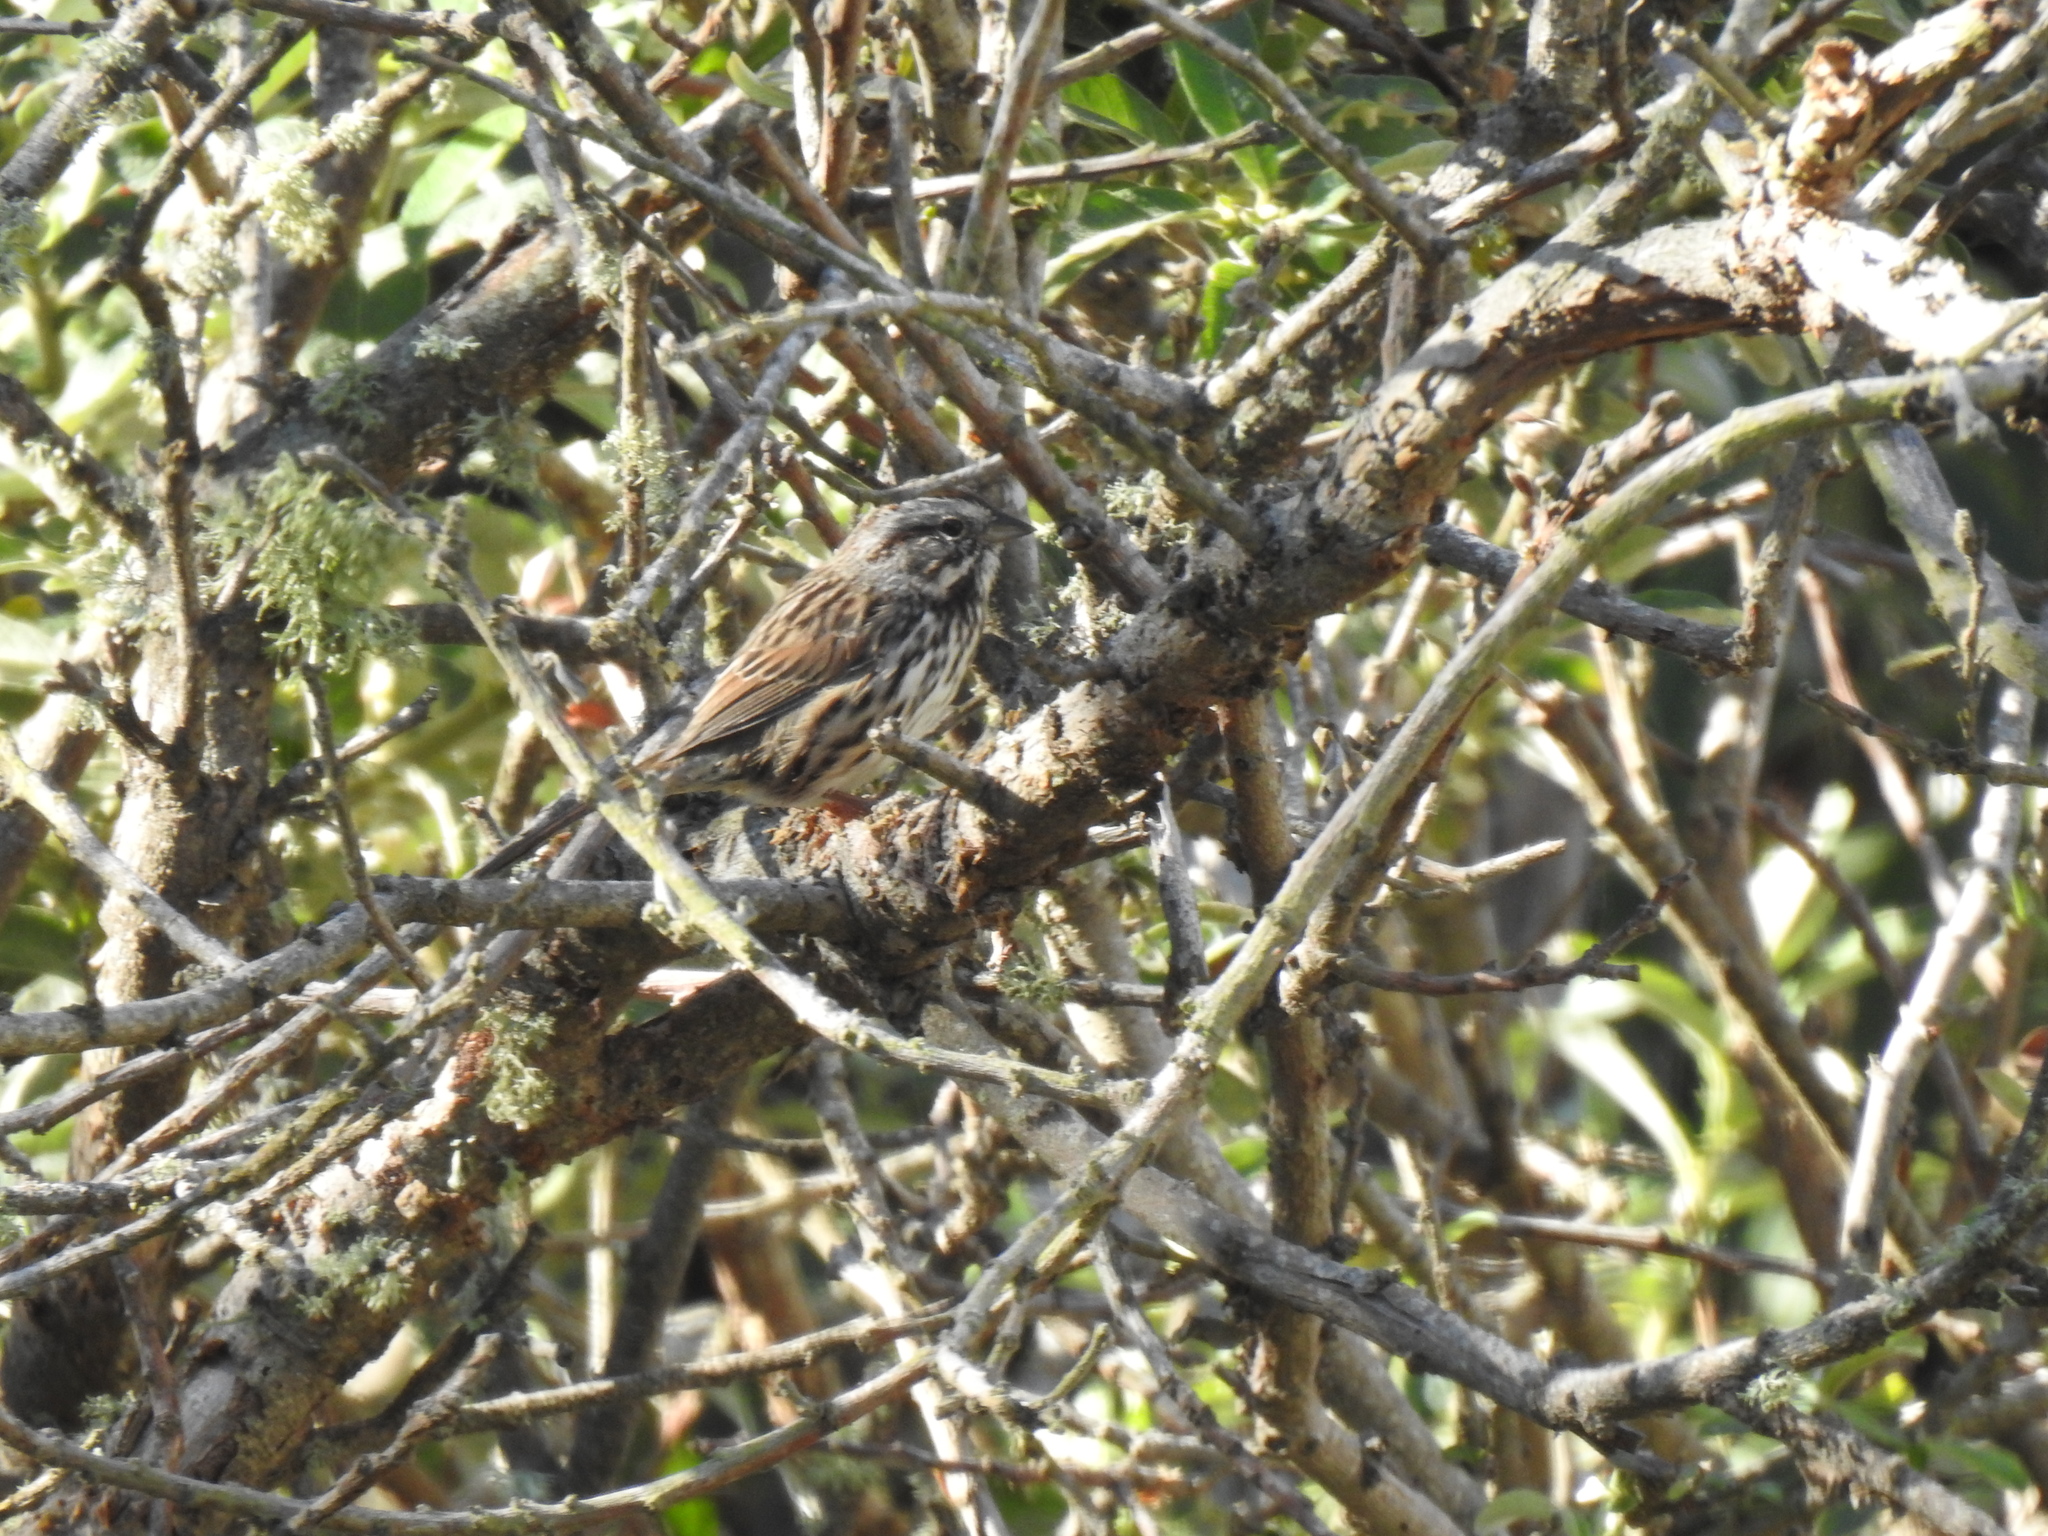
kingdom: Animalia
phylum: Chordata
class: Aves
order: Passeriformes
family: Passerellidae
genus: Melospiza
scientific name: Melospiza melodia
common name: Song sparrow
